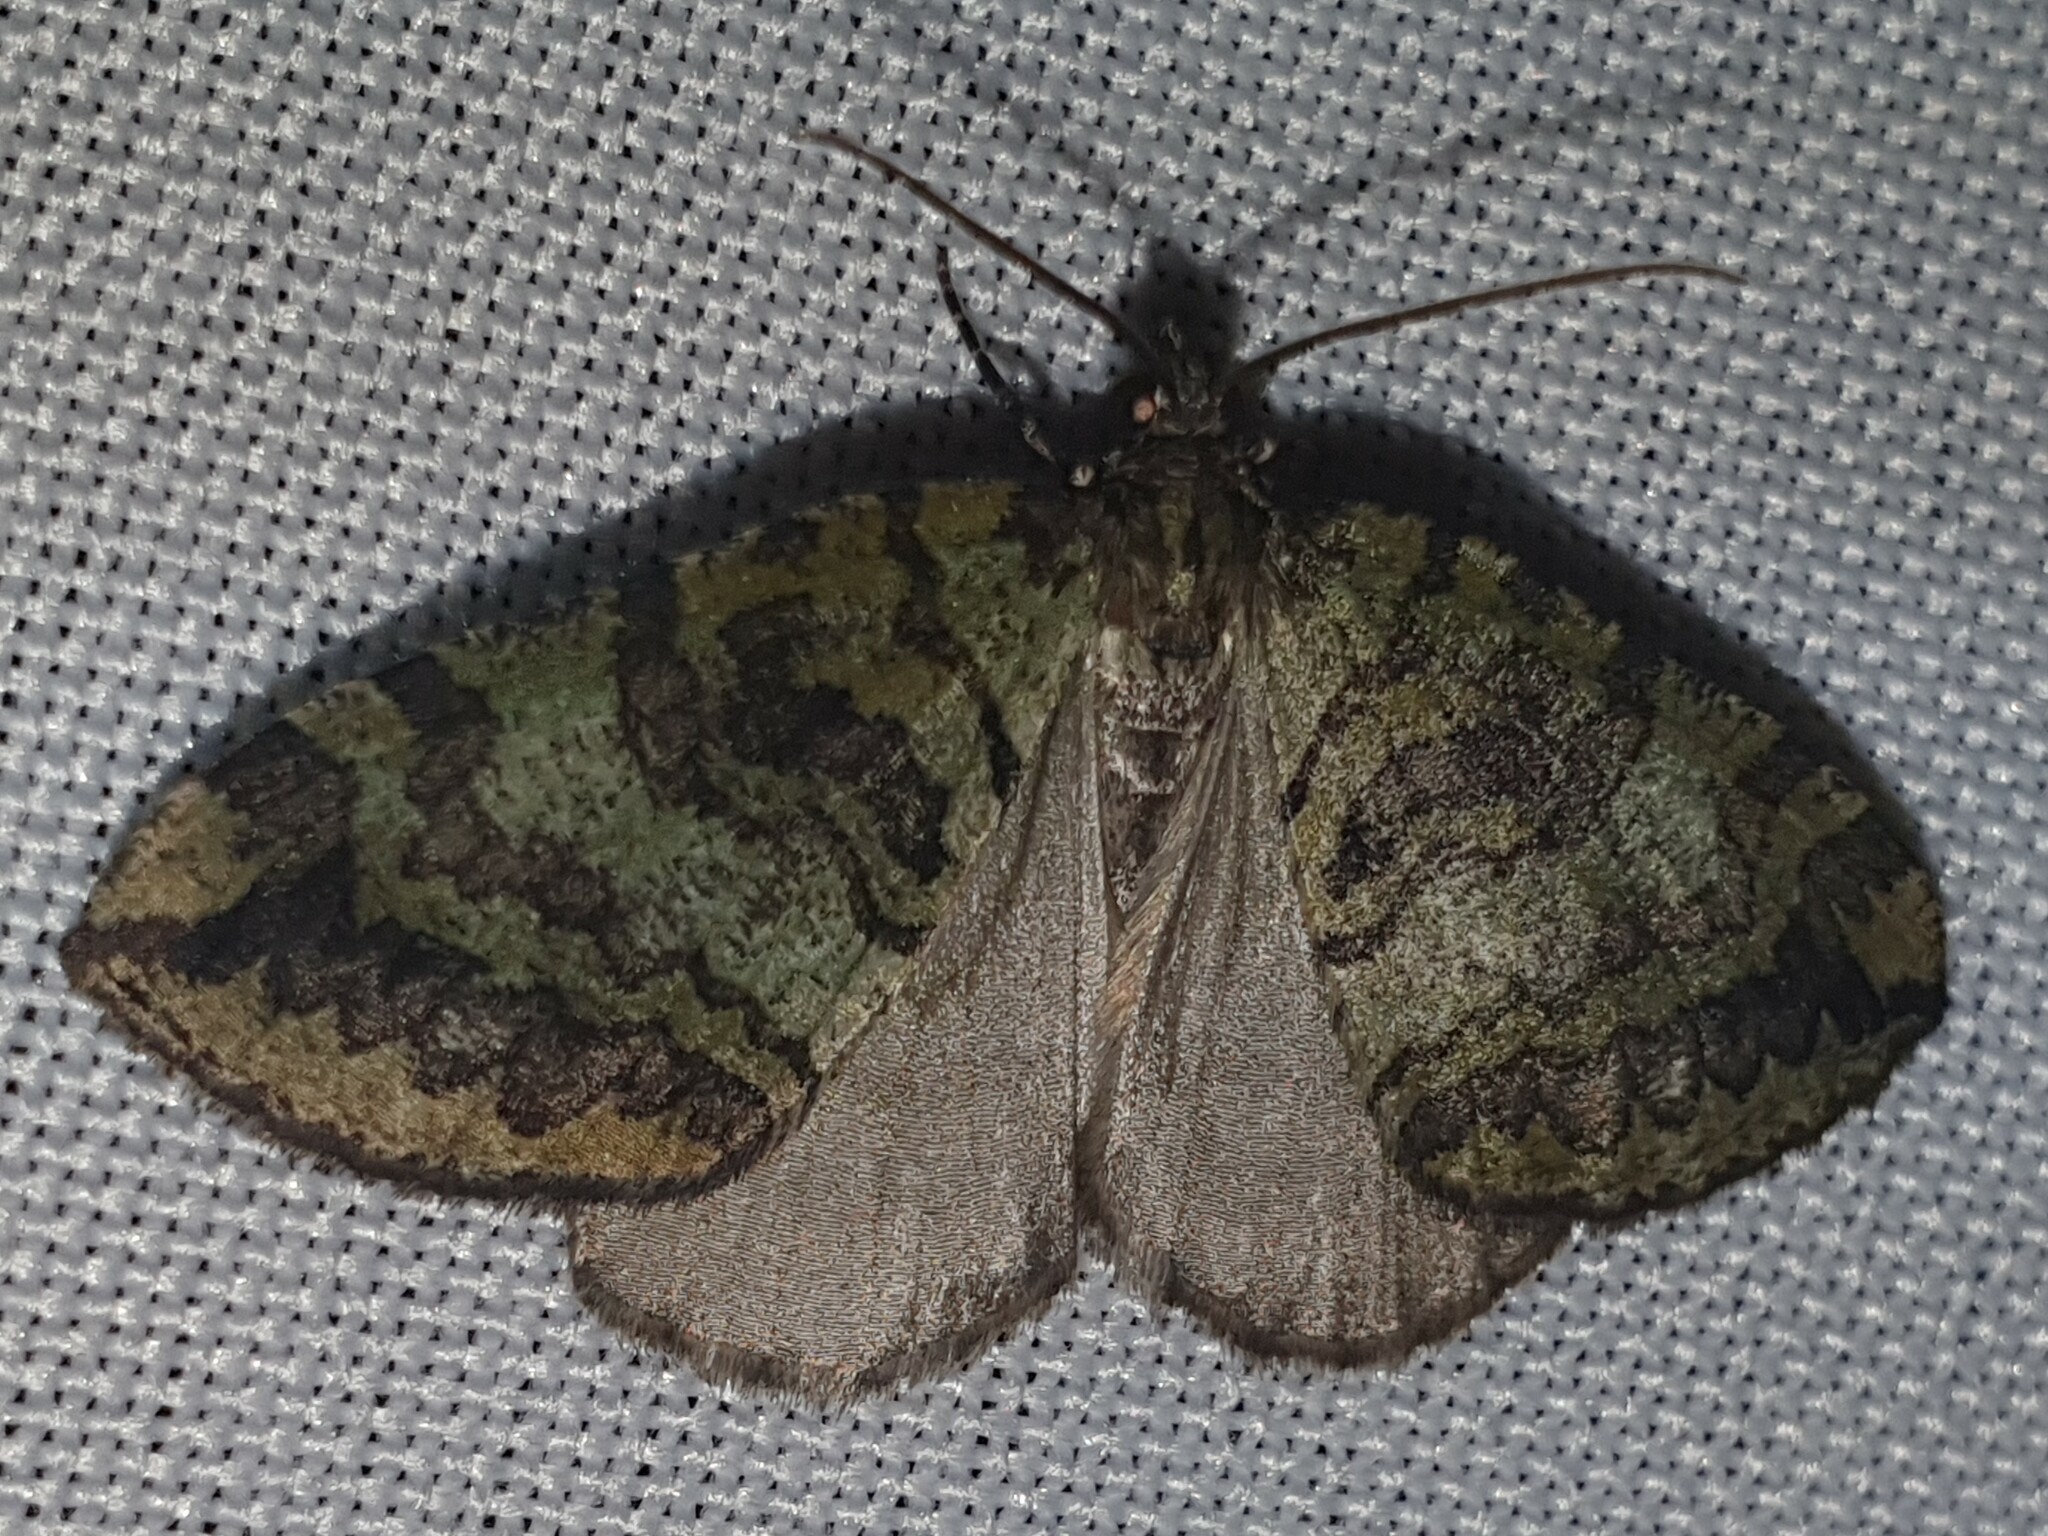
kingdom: Animalia
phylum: Arthropoda
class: Insecta
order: Lepidoptera
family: Geometridae
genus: Hydriomena
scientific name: Hydriomena furcata
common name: July highflyer
